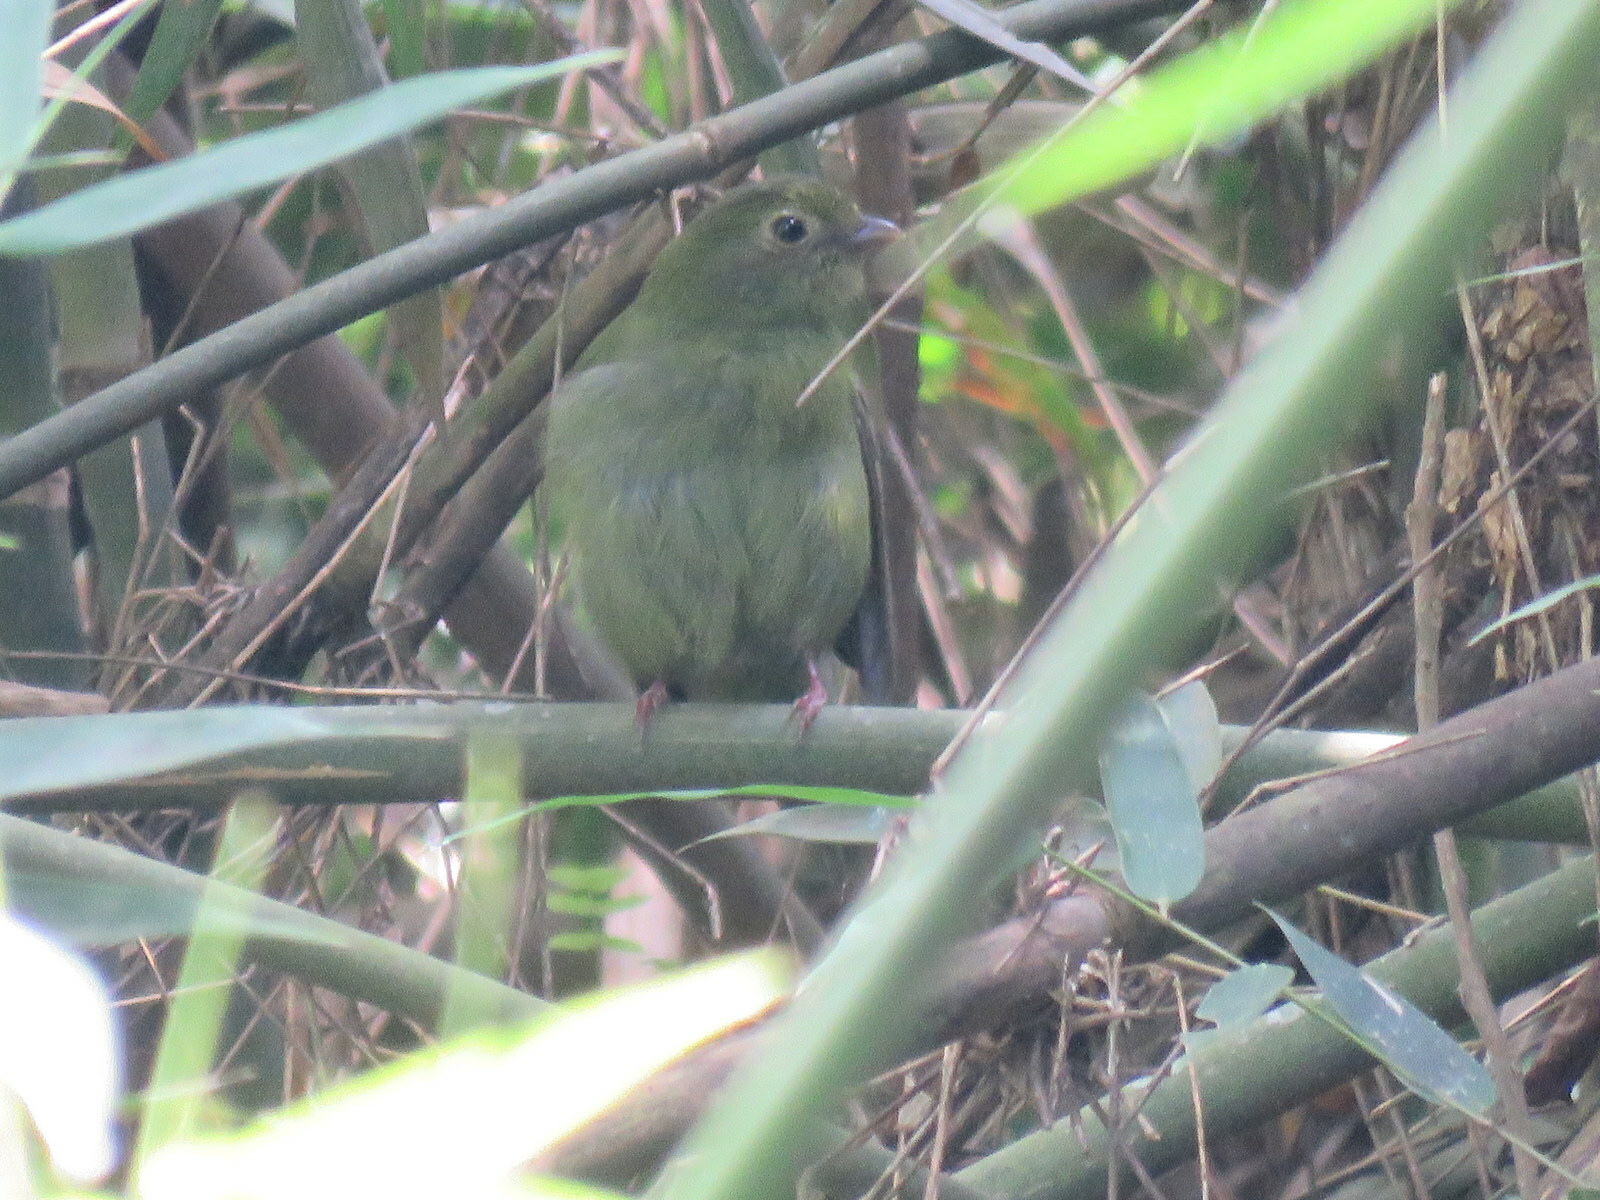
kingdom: Animalia
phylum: Chordata
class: Aves
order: Passeriformes
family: Pipridae
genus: Chiroxiphia
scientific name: Chiroxiphia caudata
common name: Blue manakin
